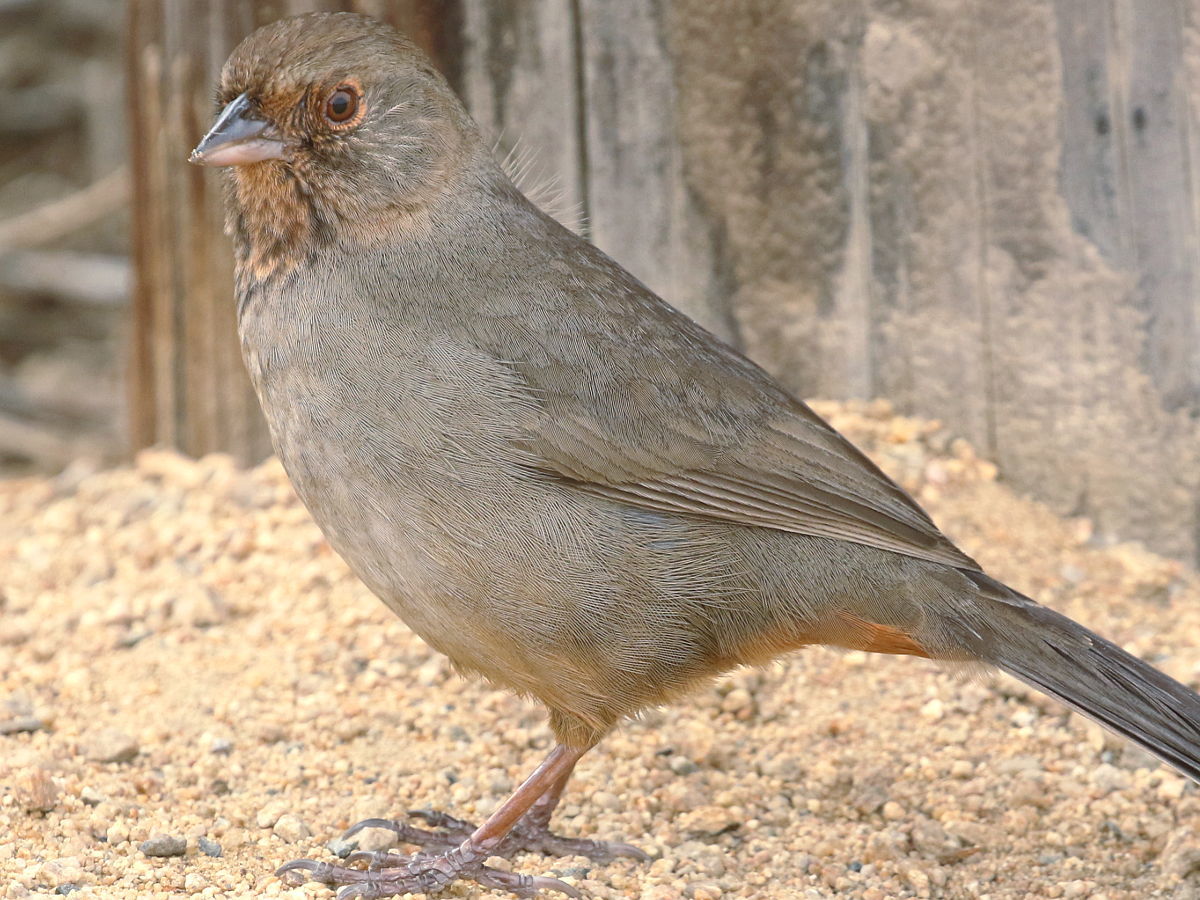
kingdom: Animalia
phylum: Chordata
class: Aves
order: Passeriformes
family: Passerellidae
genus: Melozone
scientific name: Melozone crissalis
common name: California towhee
